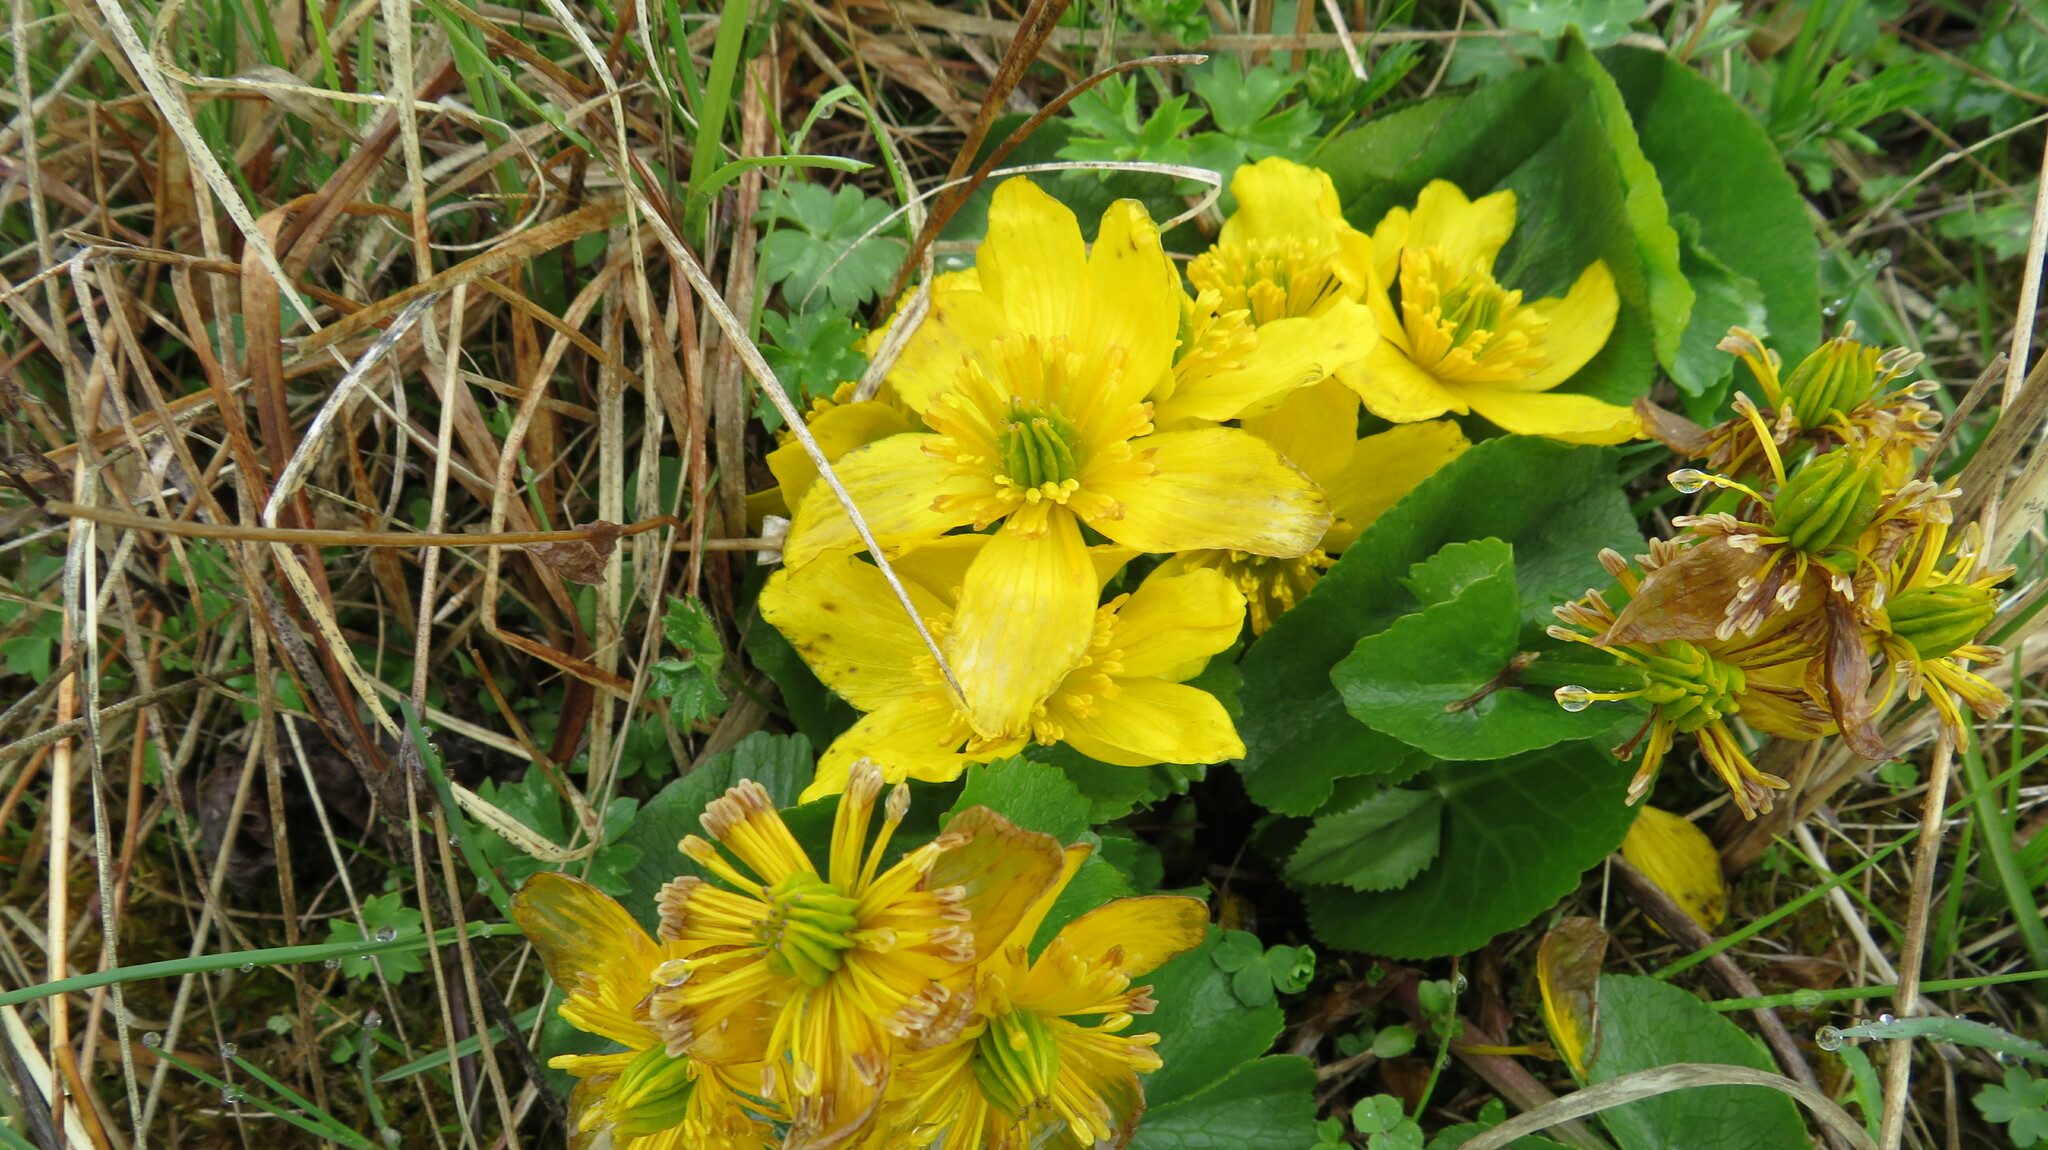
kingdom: Plantae
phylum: Tracheophyta
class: Magnoliopsida
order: Ranunculales
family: Ranunculaceae
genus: Caltha
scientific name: Caltha palustris
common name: Marsh marigold
